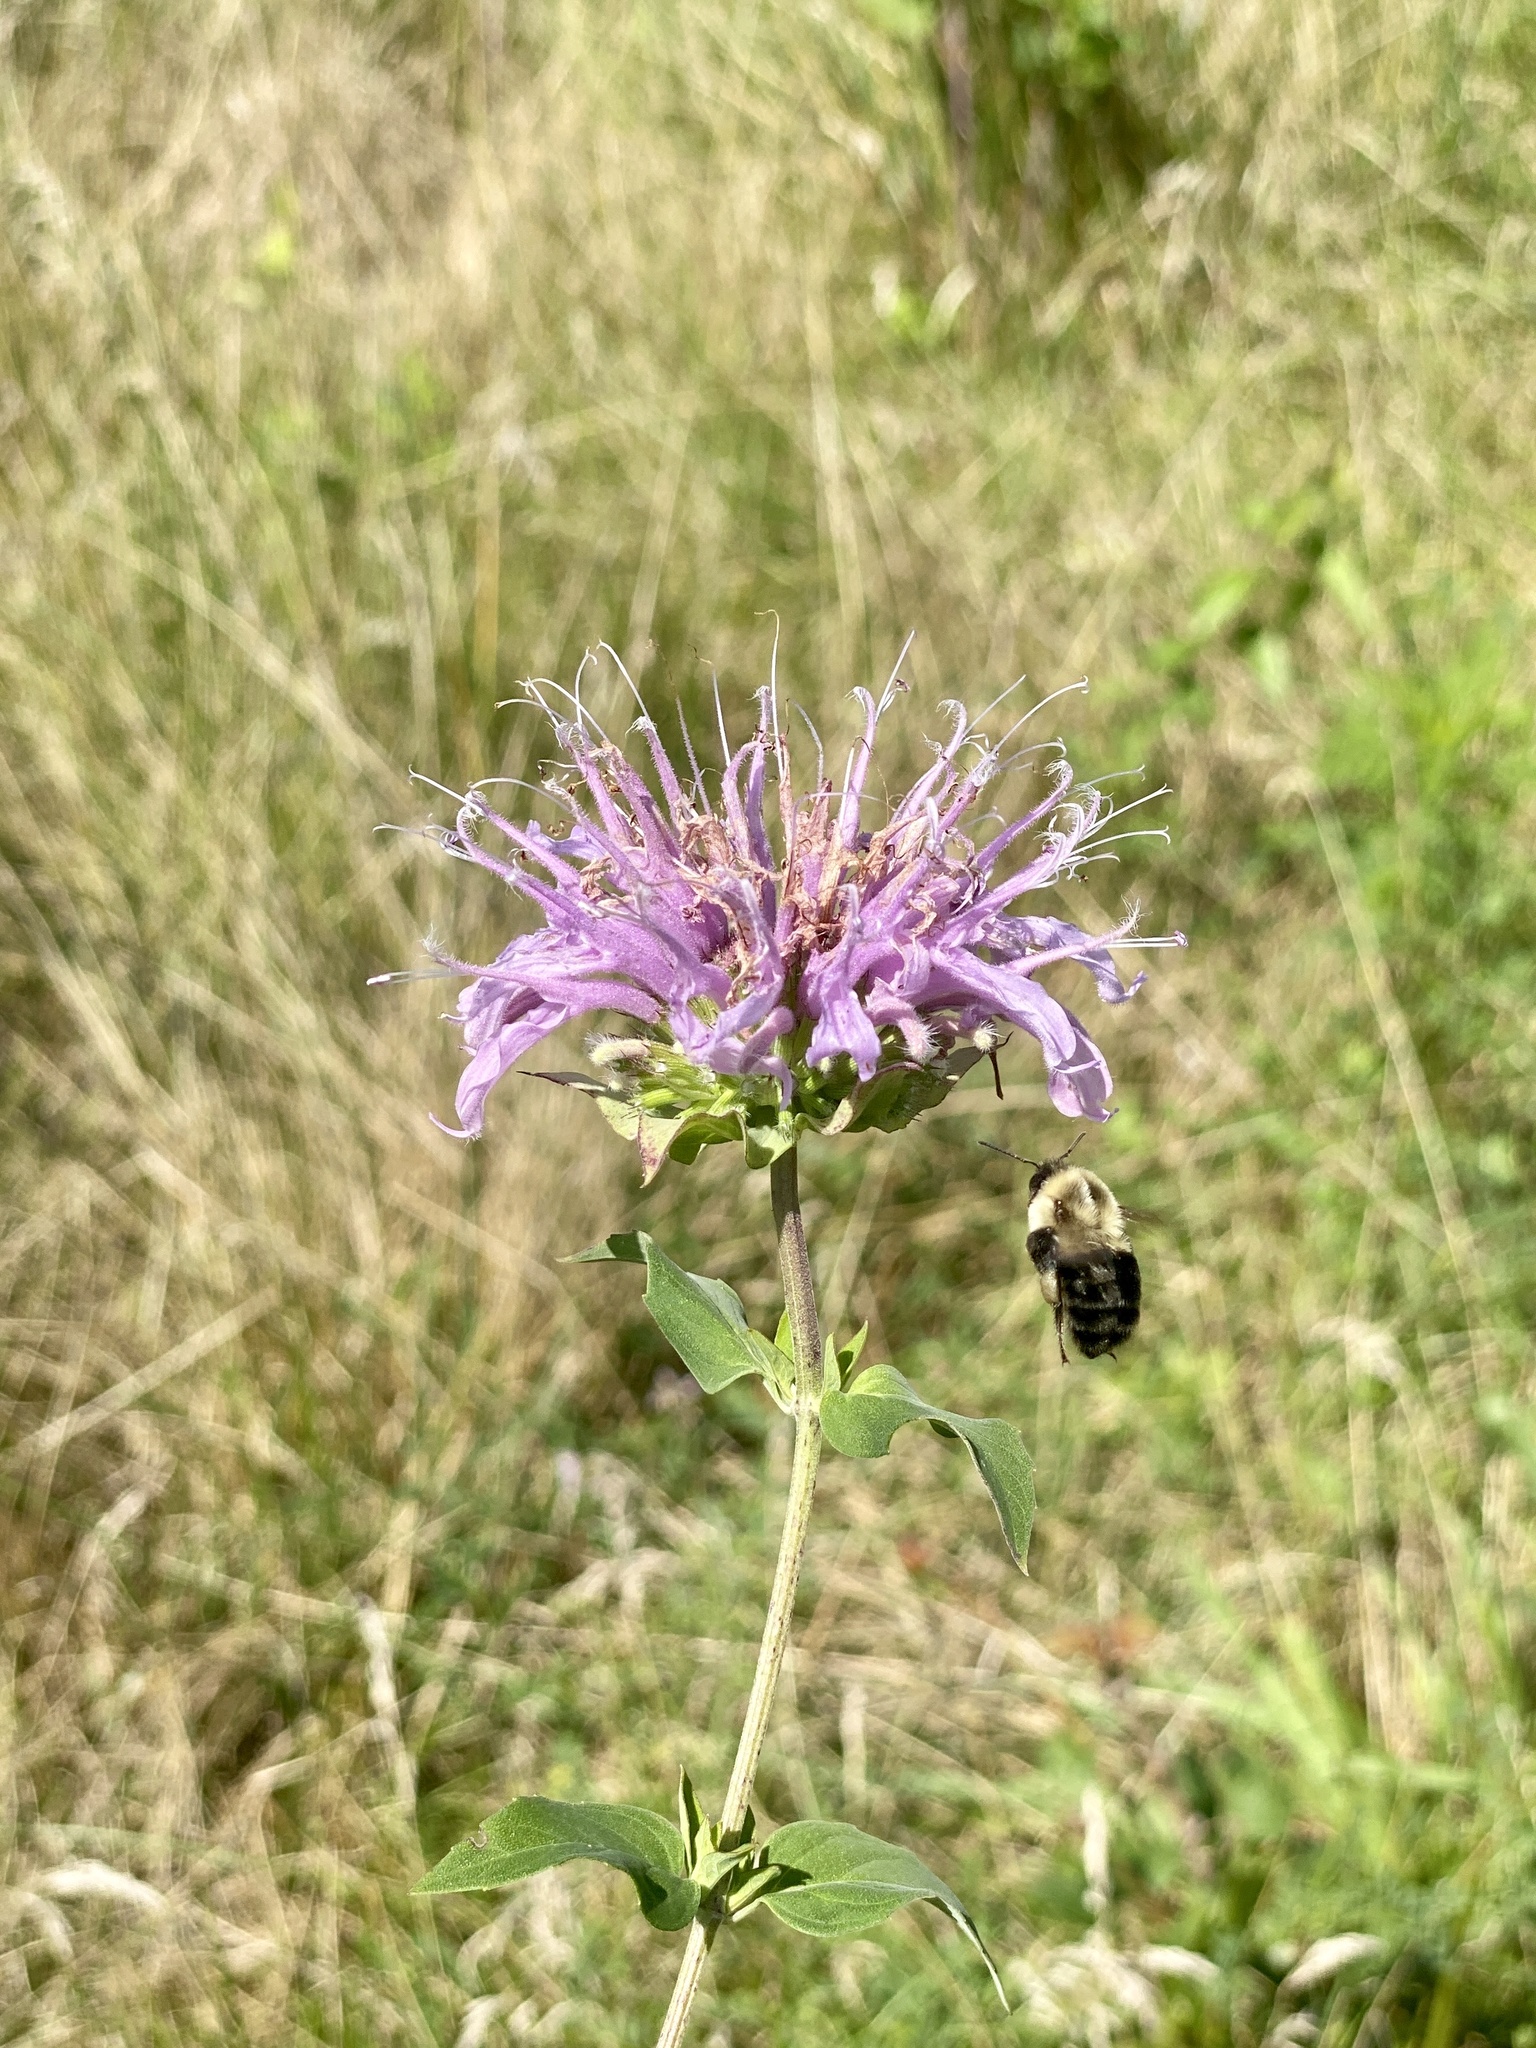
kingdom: Plantae
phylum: Tracheophyta
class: Magnoliopsida
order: Lamiales
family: Lamiaceae
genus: Monarda
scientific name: Monarda fistulosa
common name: Purple beebalm
